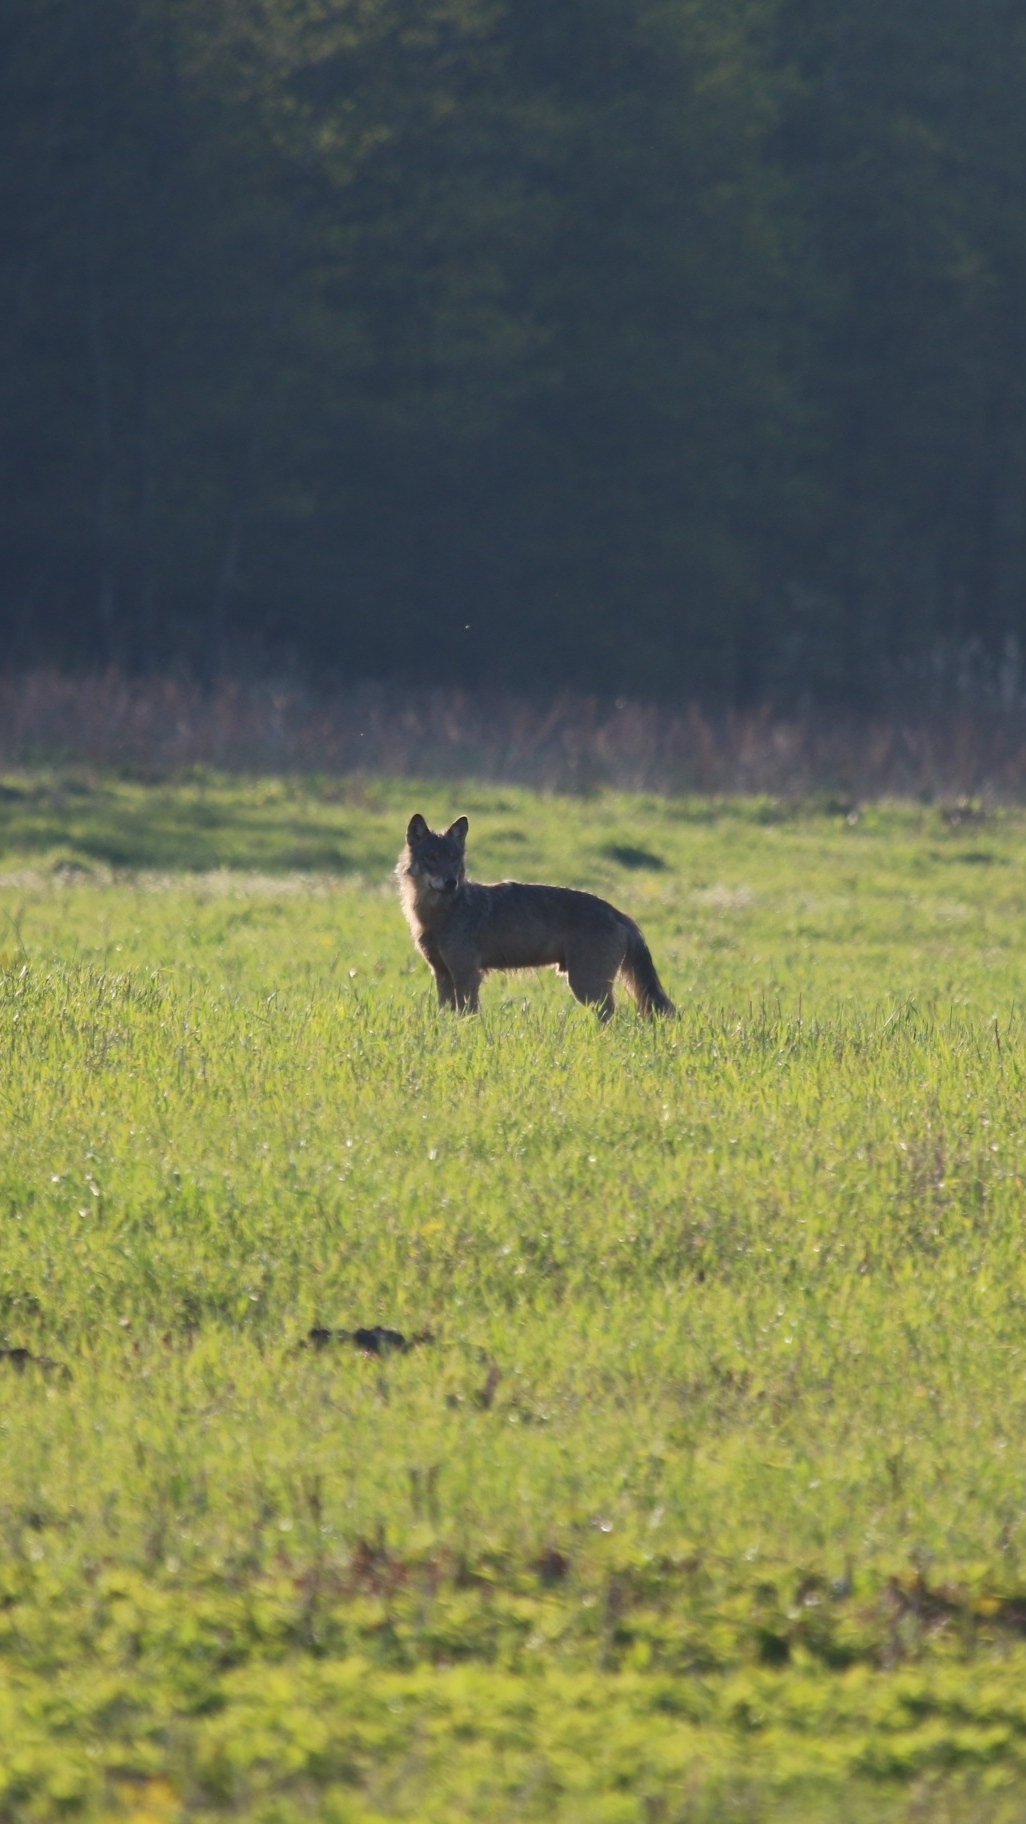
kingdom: Animalia
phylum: Chordata
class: Mammalia
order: Carnivora
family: Canidae
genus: Canis
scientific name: Canis lupus
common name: Gray wolf
